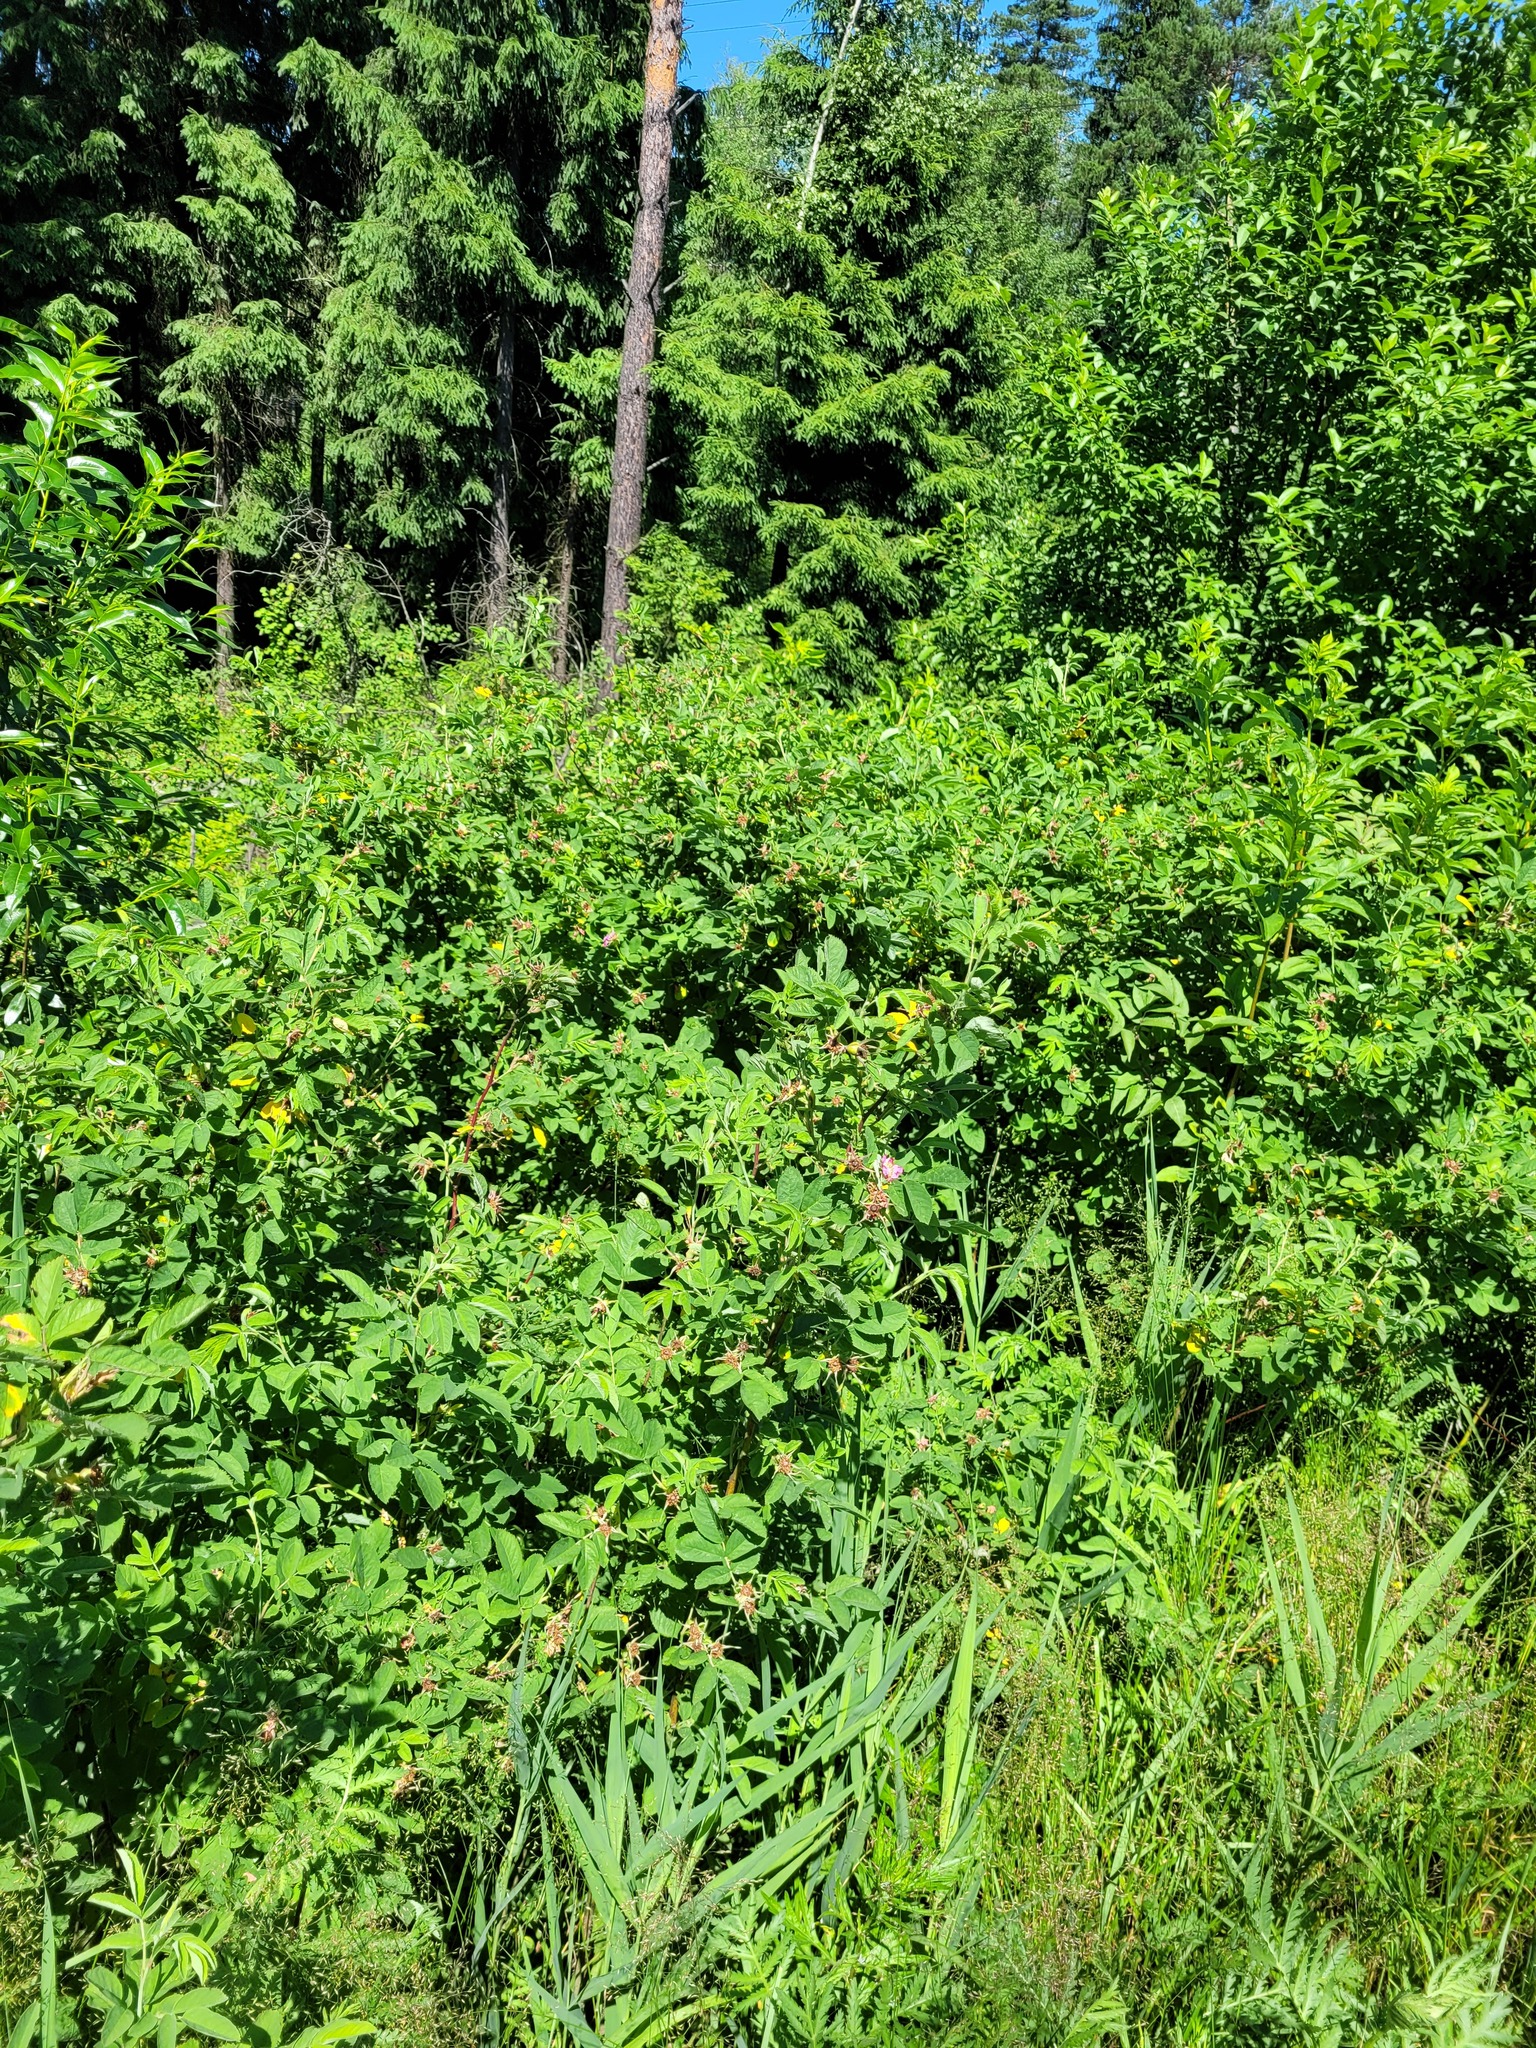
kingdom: Plantae
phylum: Tracheophyta
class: Magnoliopsida
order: Rosales
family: Rosaceae
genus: Rosa
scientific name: Rosa majalis
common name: Cinnamon rose
